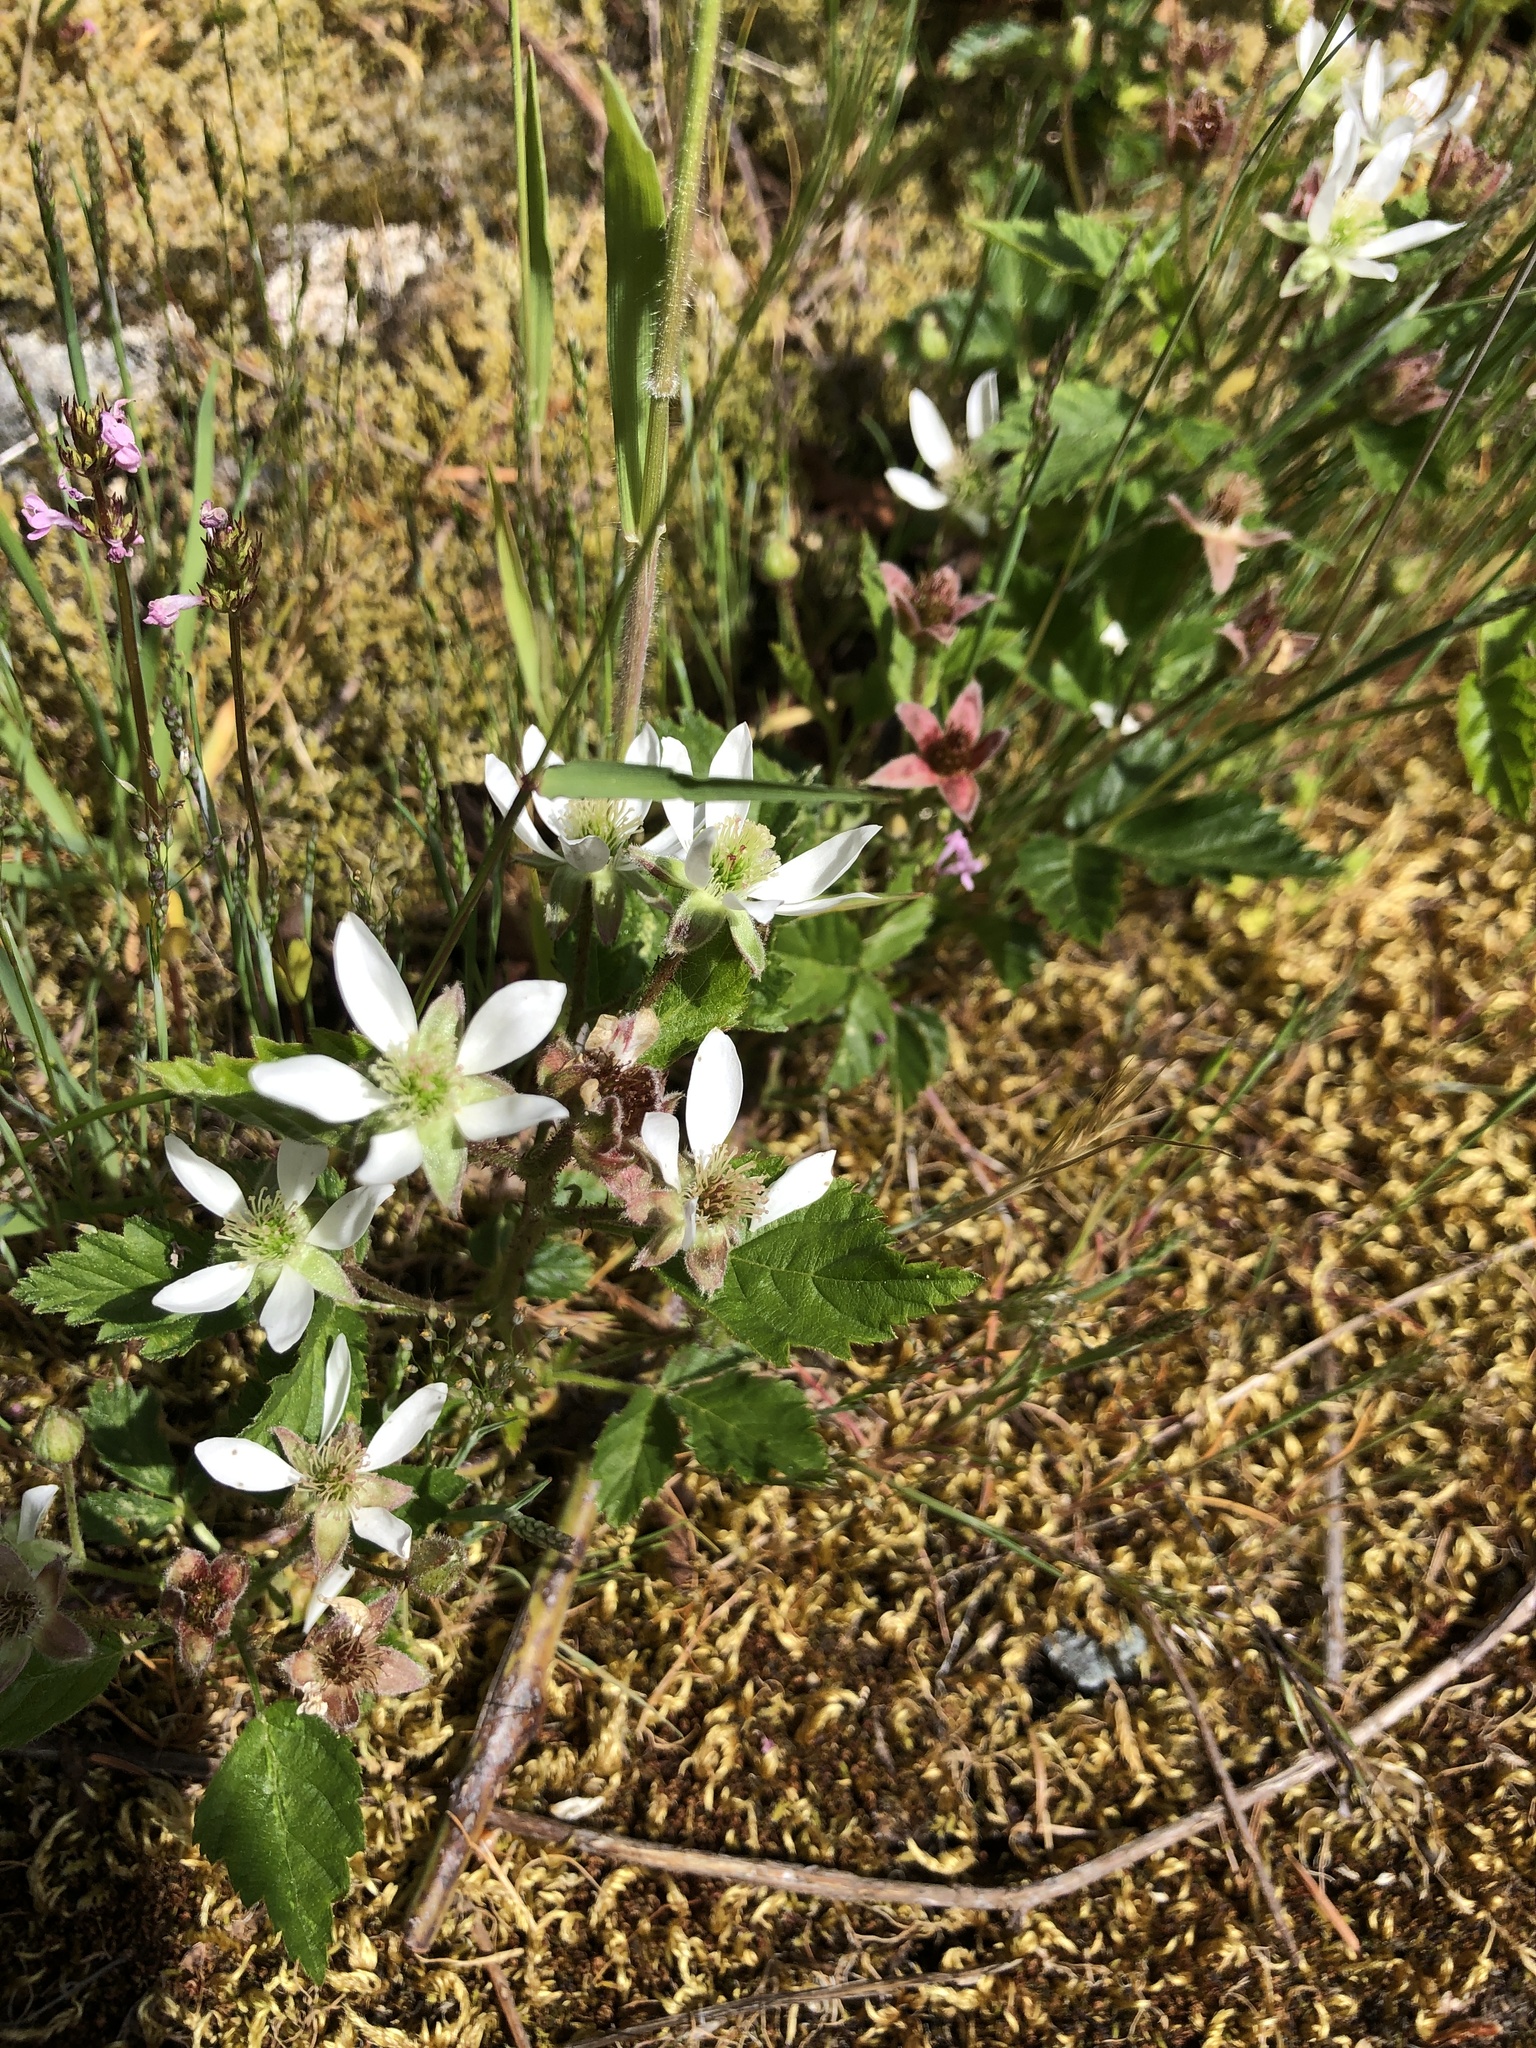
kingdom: Plantae
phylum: Tracheophyta
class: Magnoliopsida
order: Rosales
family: Rosaceae
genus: Rubus
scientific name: Rubus ursinus
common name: Pacific blackberry
